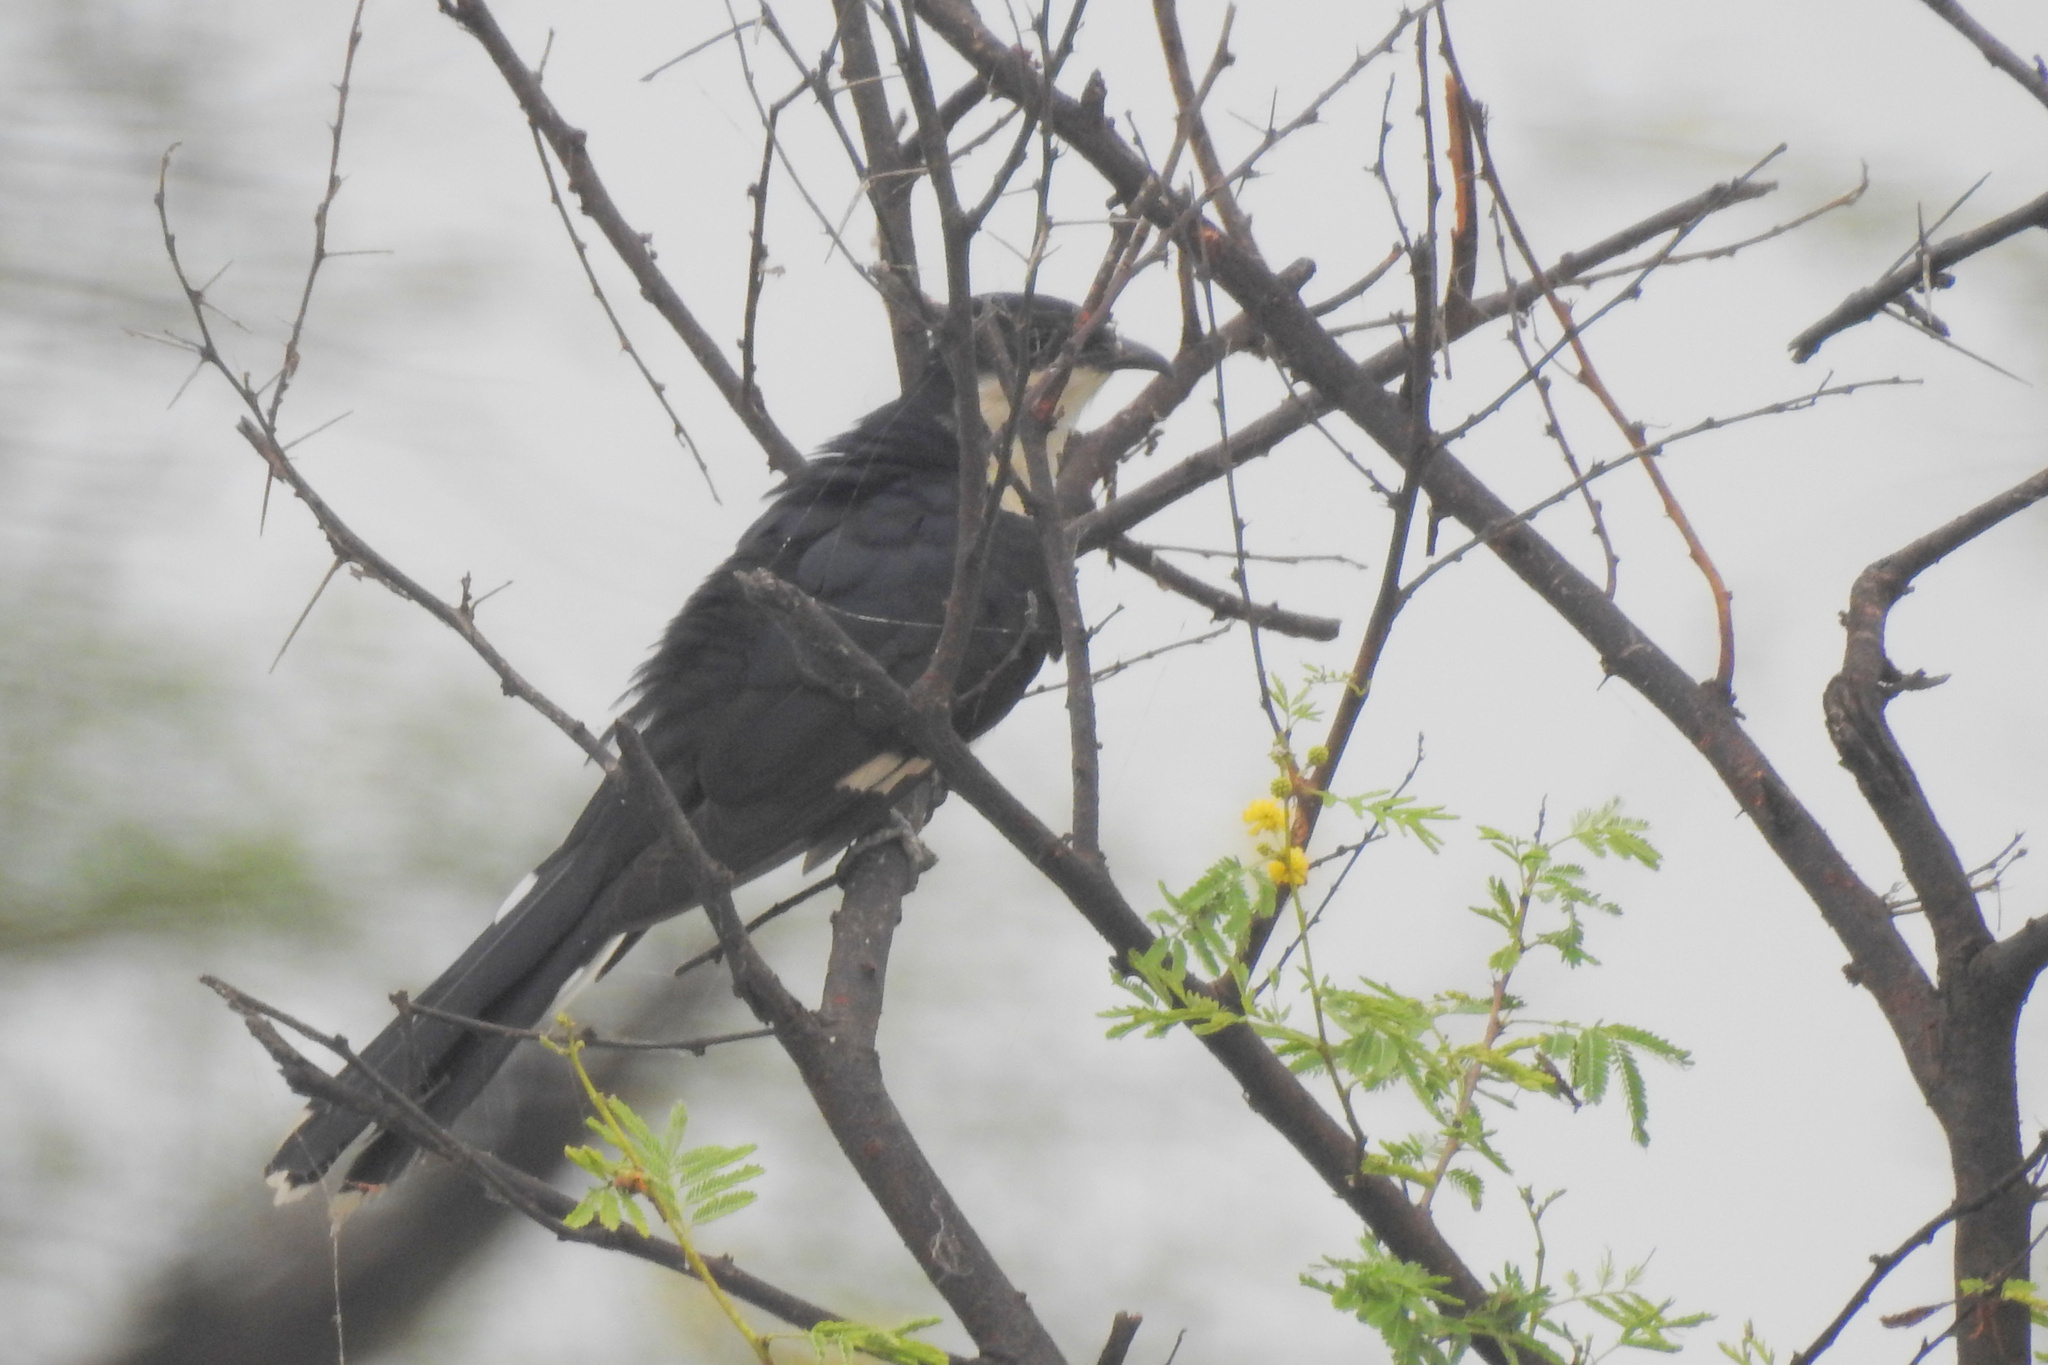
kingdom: Animalia
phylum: Chordata
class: Aves
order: Cuculiformes
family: Cuculidae
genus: Clamator
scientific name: Clamator jacobinus
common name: Jacobin cuckoo
